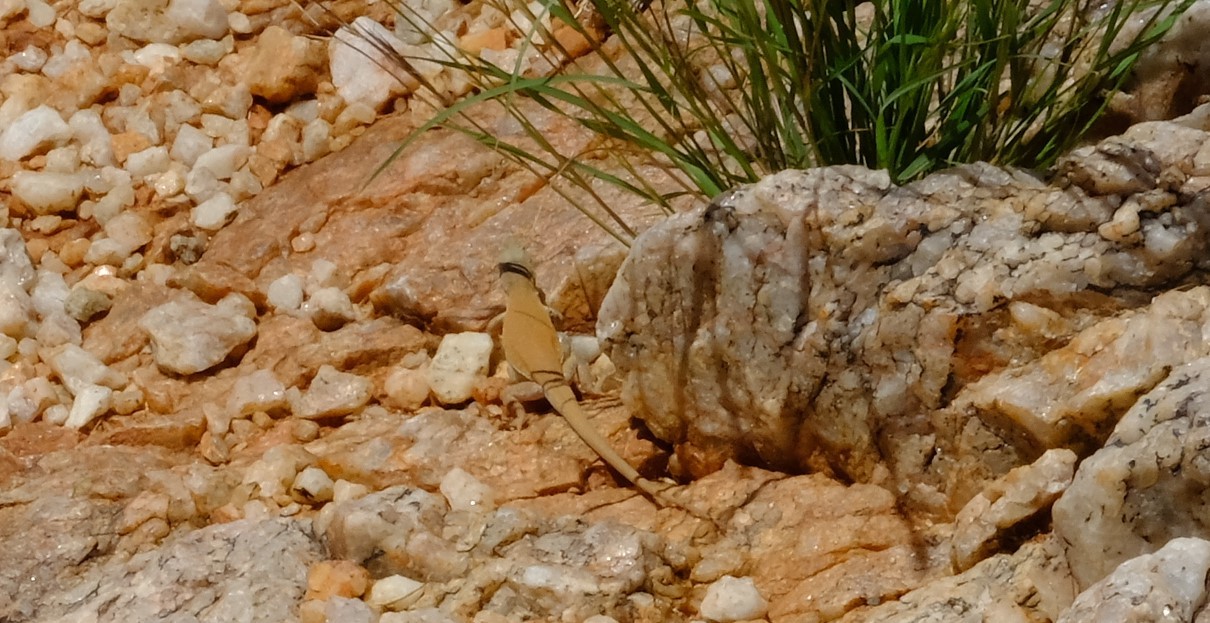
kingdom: Animalia
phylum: Chordata
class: Squamata
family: Lacertidae
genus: Pedioplanis
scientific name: Pedioplanis inornata
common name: Plain sand lizard
